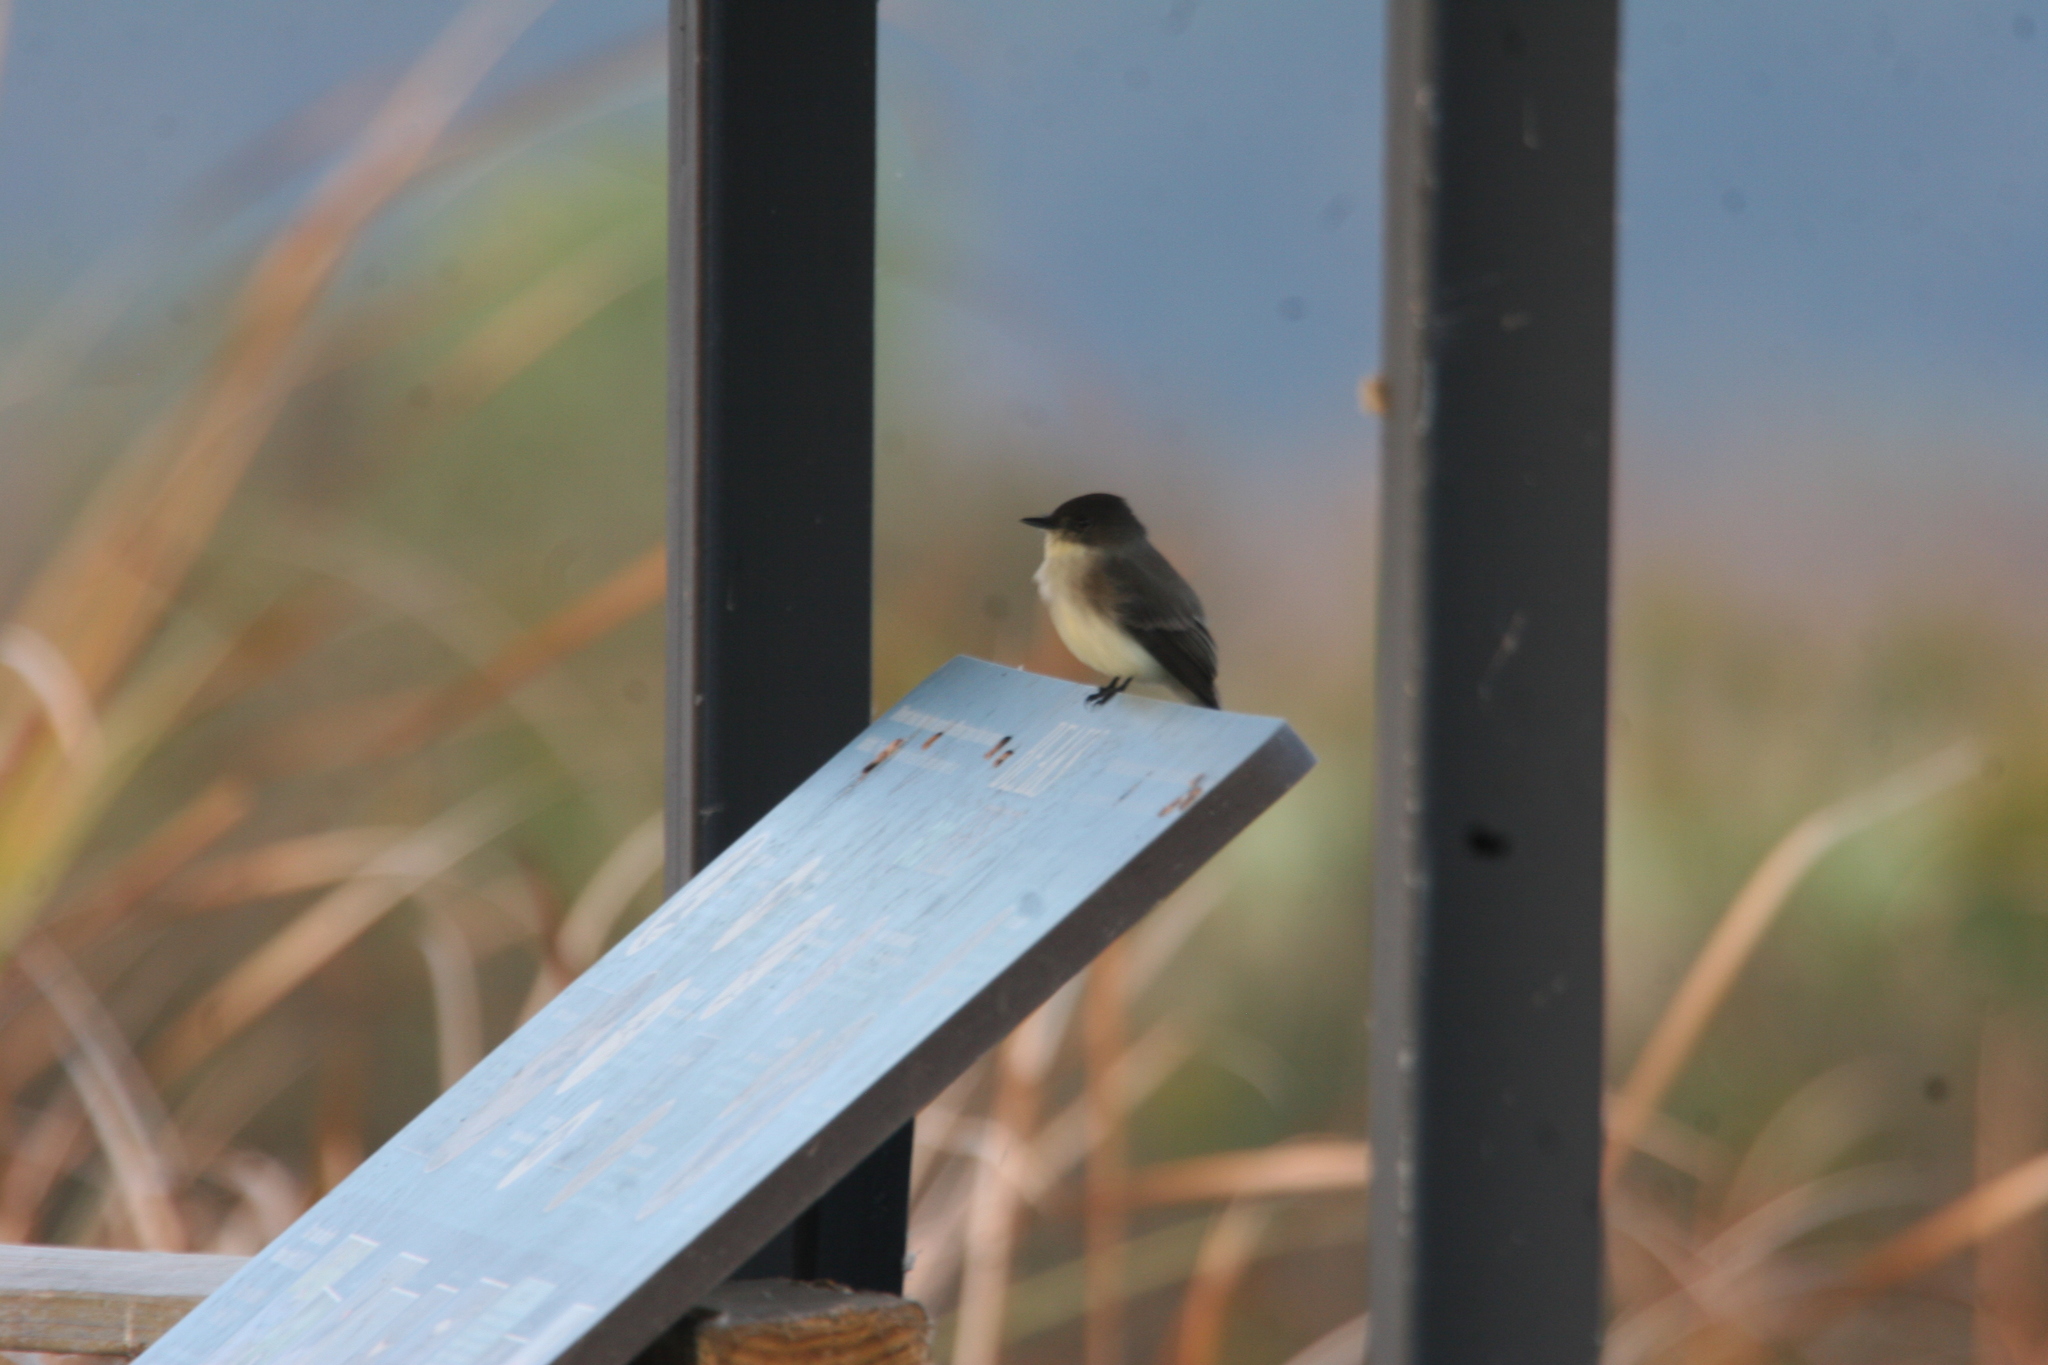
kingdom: Animalia
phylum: Chordata
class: Aves
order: Passeriformes
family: Tyrannidae
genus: Sayornis
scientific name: Sayornis phoebe
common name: Eastern phoebe
